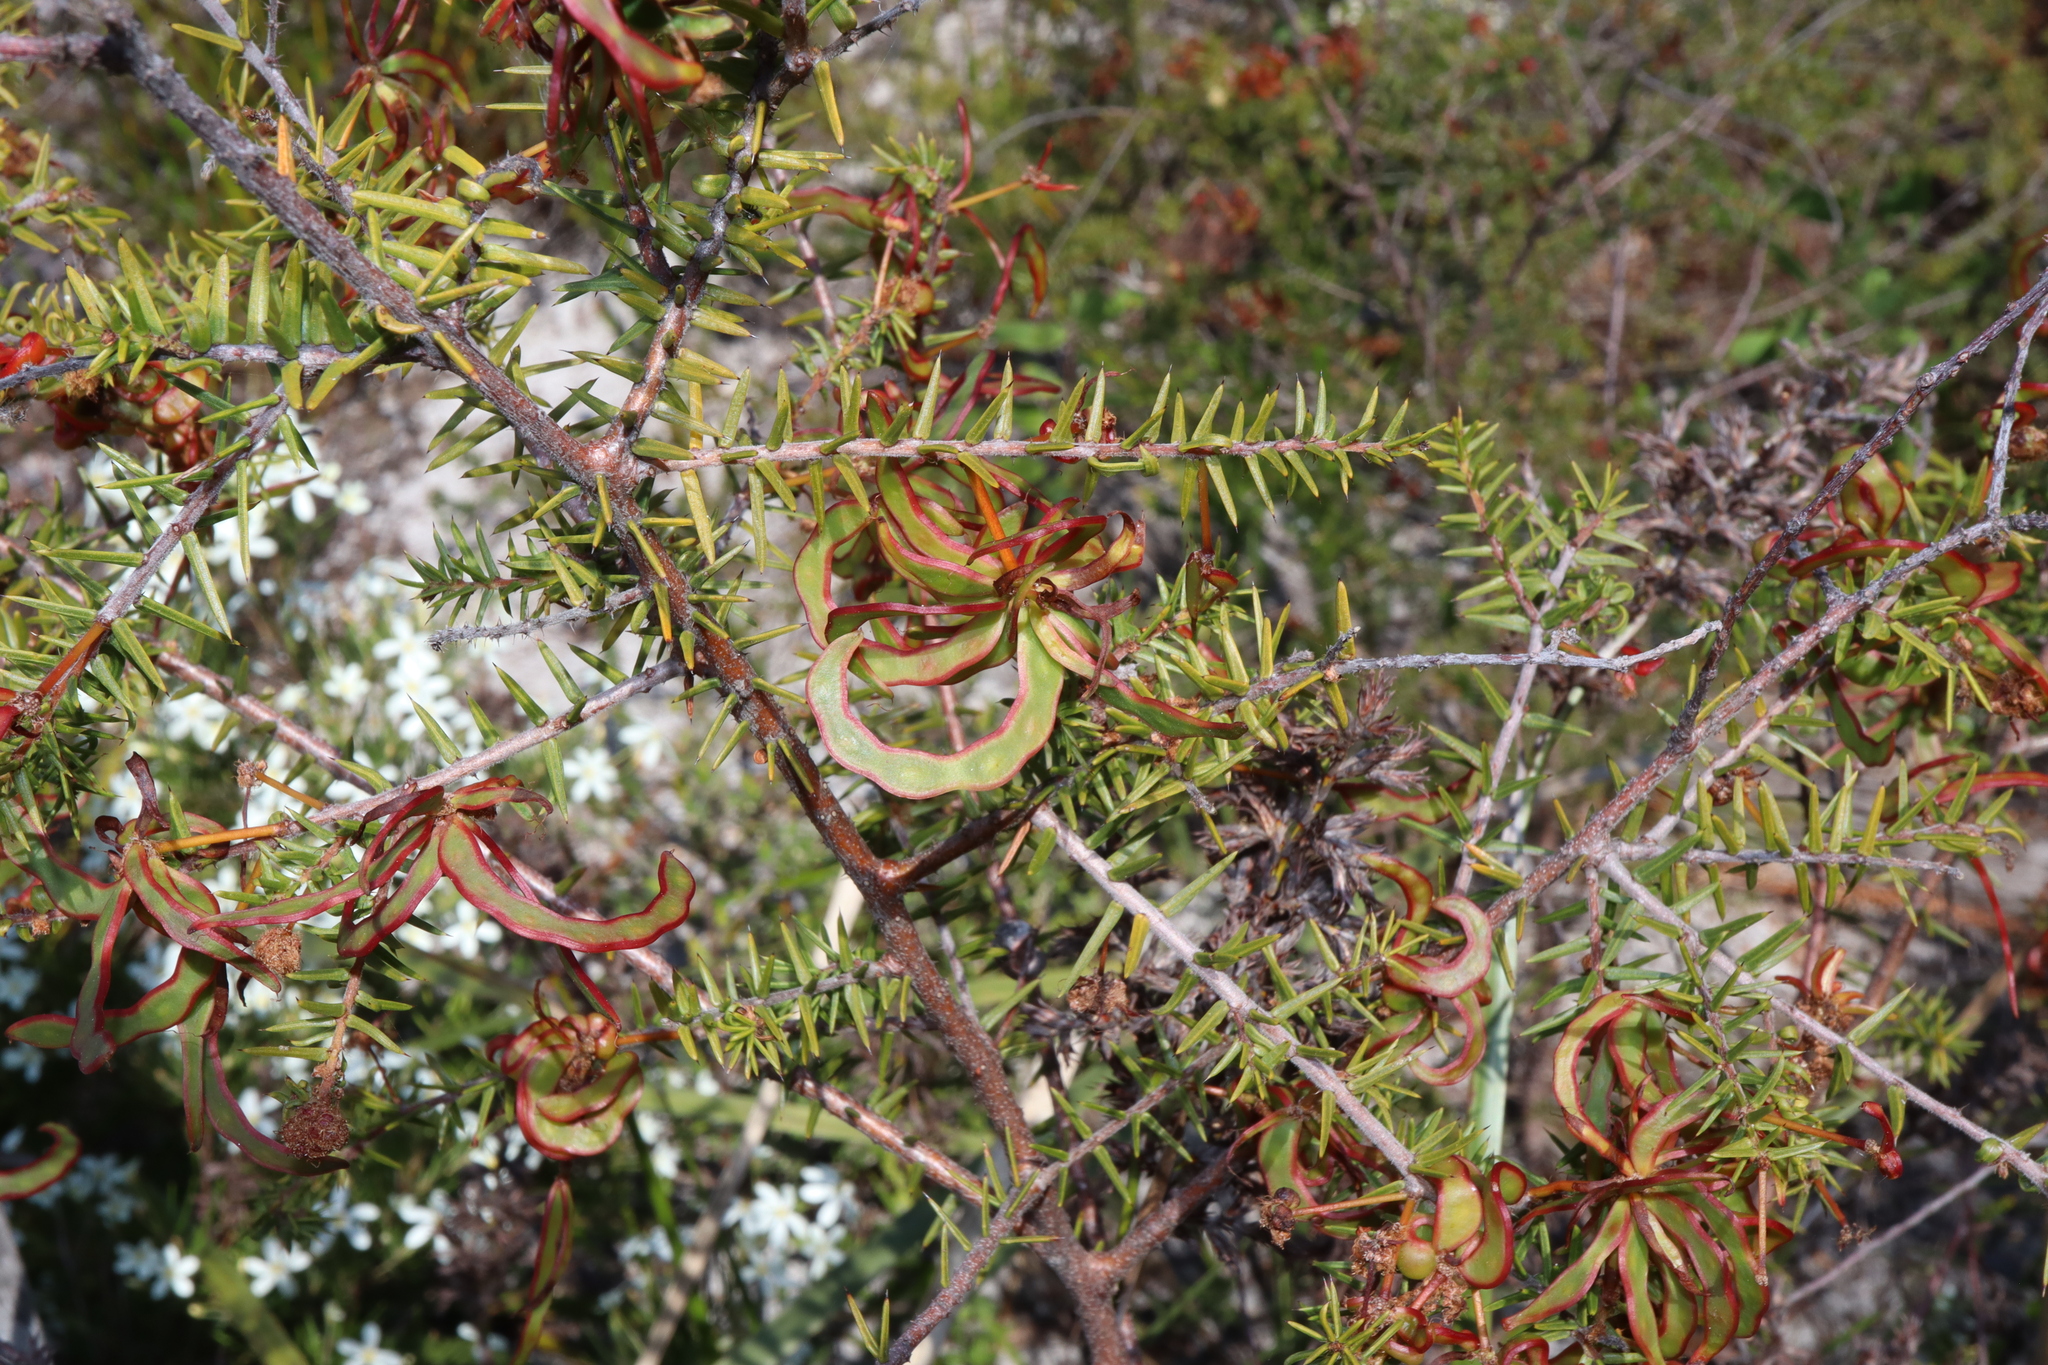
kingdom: Plantae
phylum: Tracheophyta
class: Magnoliopsida
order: Fabales
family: Fabaceae
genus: Acacia
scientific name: Acacia ulicifolia
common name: Juniper wattle
